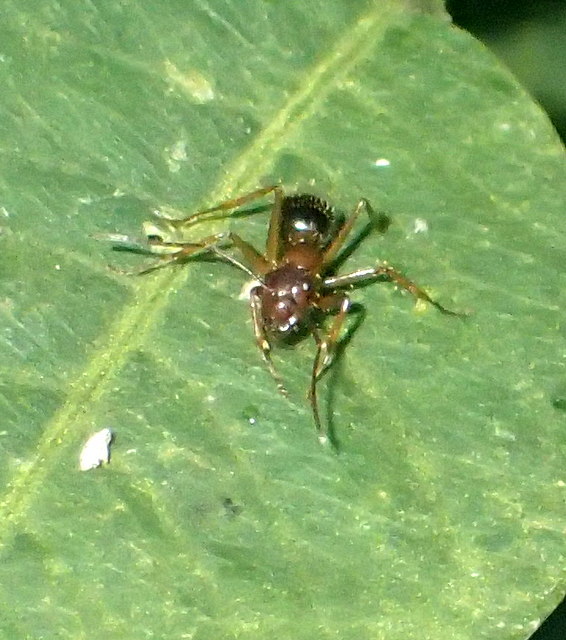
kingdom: Animalia
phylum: Arthropoda
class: Insecta
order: Hymenoptera
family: Formicidae
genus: Camponotus
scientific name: Camponotus floridanus
